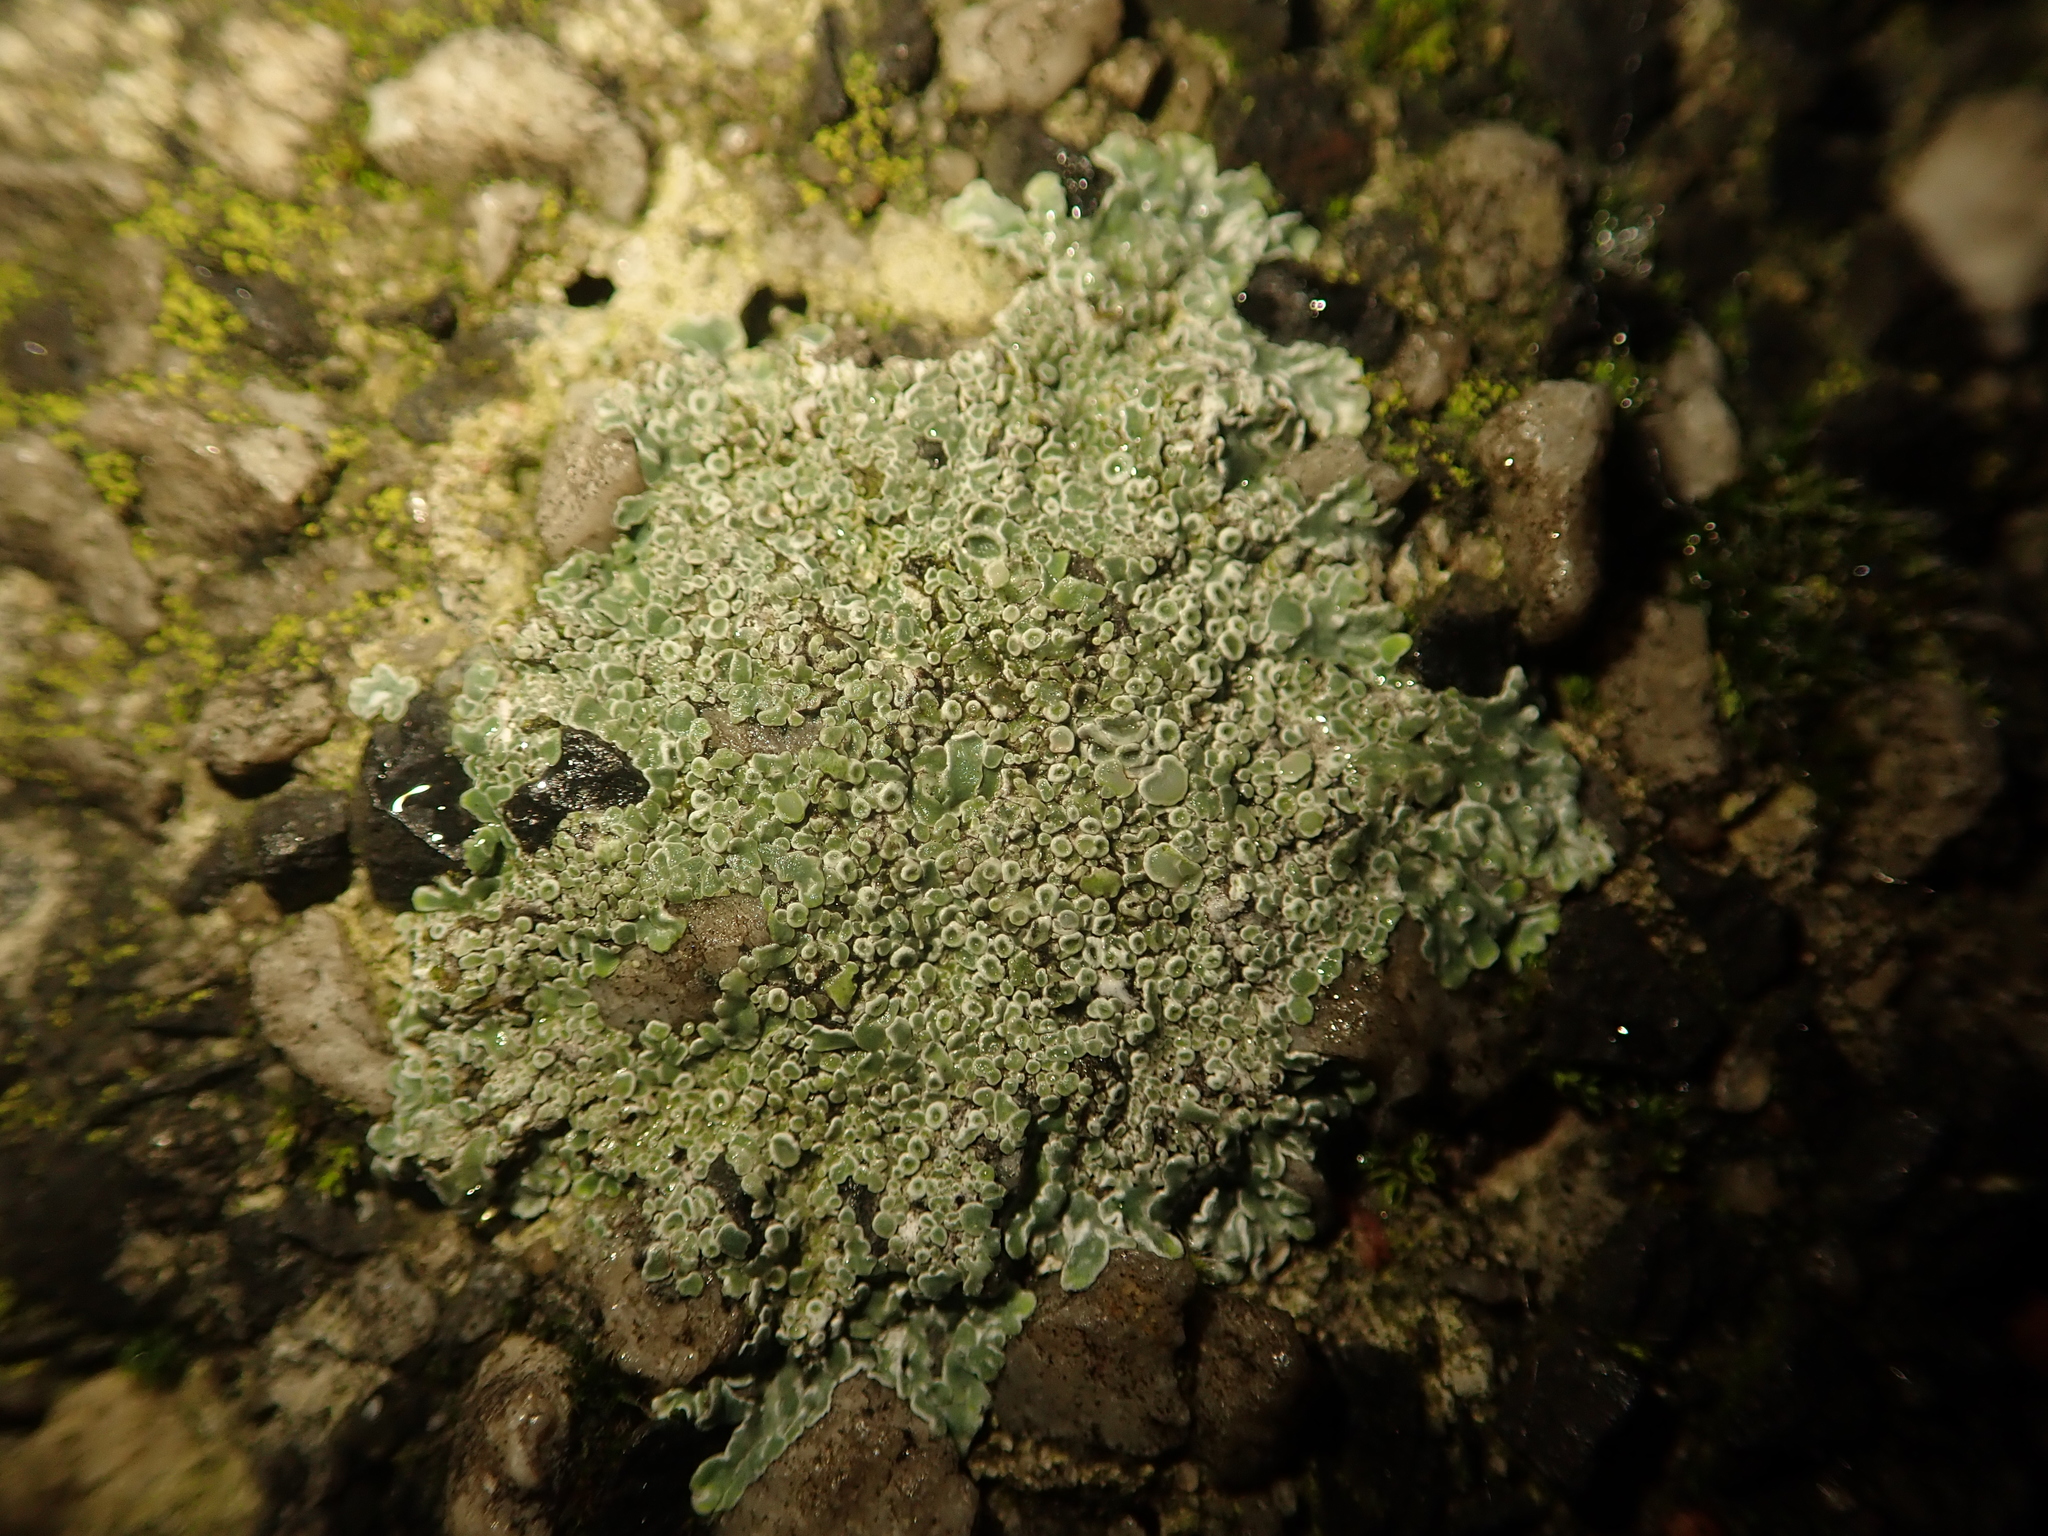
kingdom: Fungi
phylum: Ascomycota
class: Lecanoromycetes
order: Lecanorales
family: Lecanoraceae
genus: Protoparmeliopsis
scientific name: Protoparmeliopsis muralis
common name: Stonewall rim lichen
